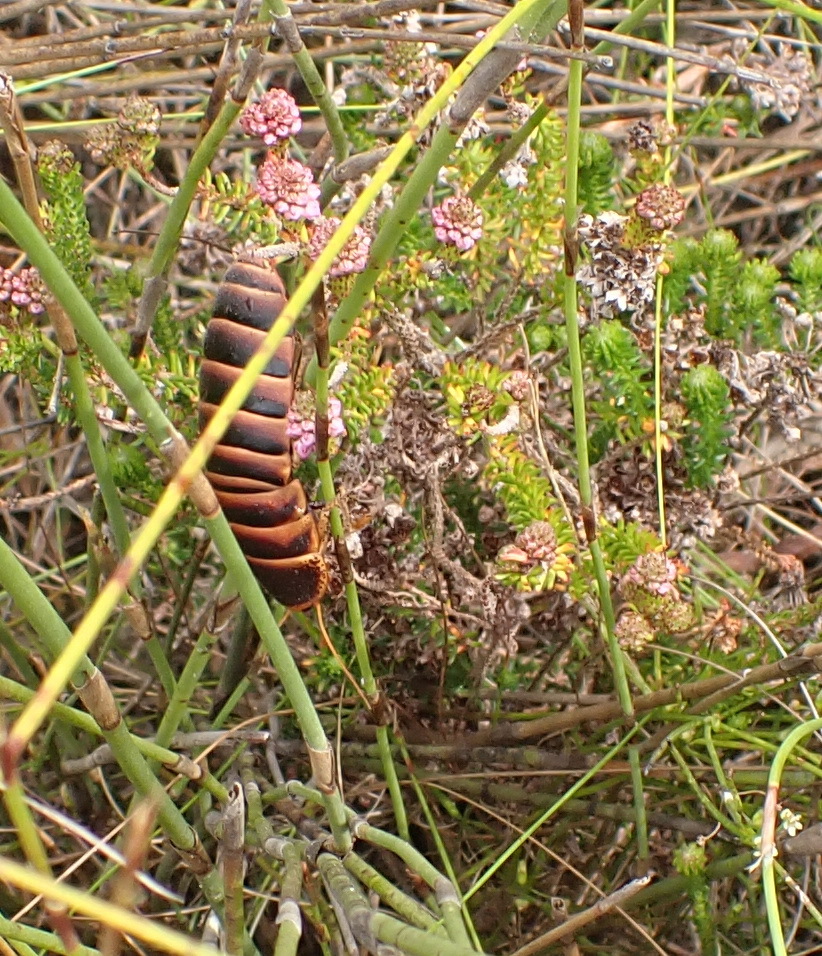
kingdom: Animalia
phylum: Arthropoda
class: Insecta
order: Blattodea
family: Blaberidae
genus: Aptera
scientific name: Aptera fusca
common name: Cape mountain cockroach
